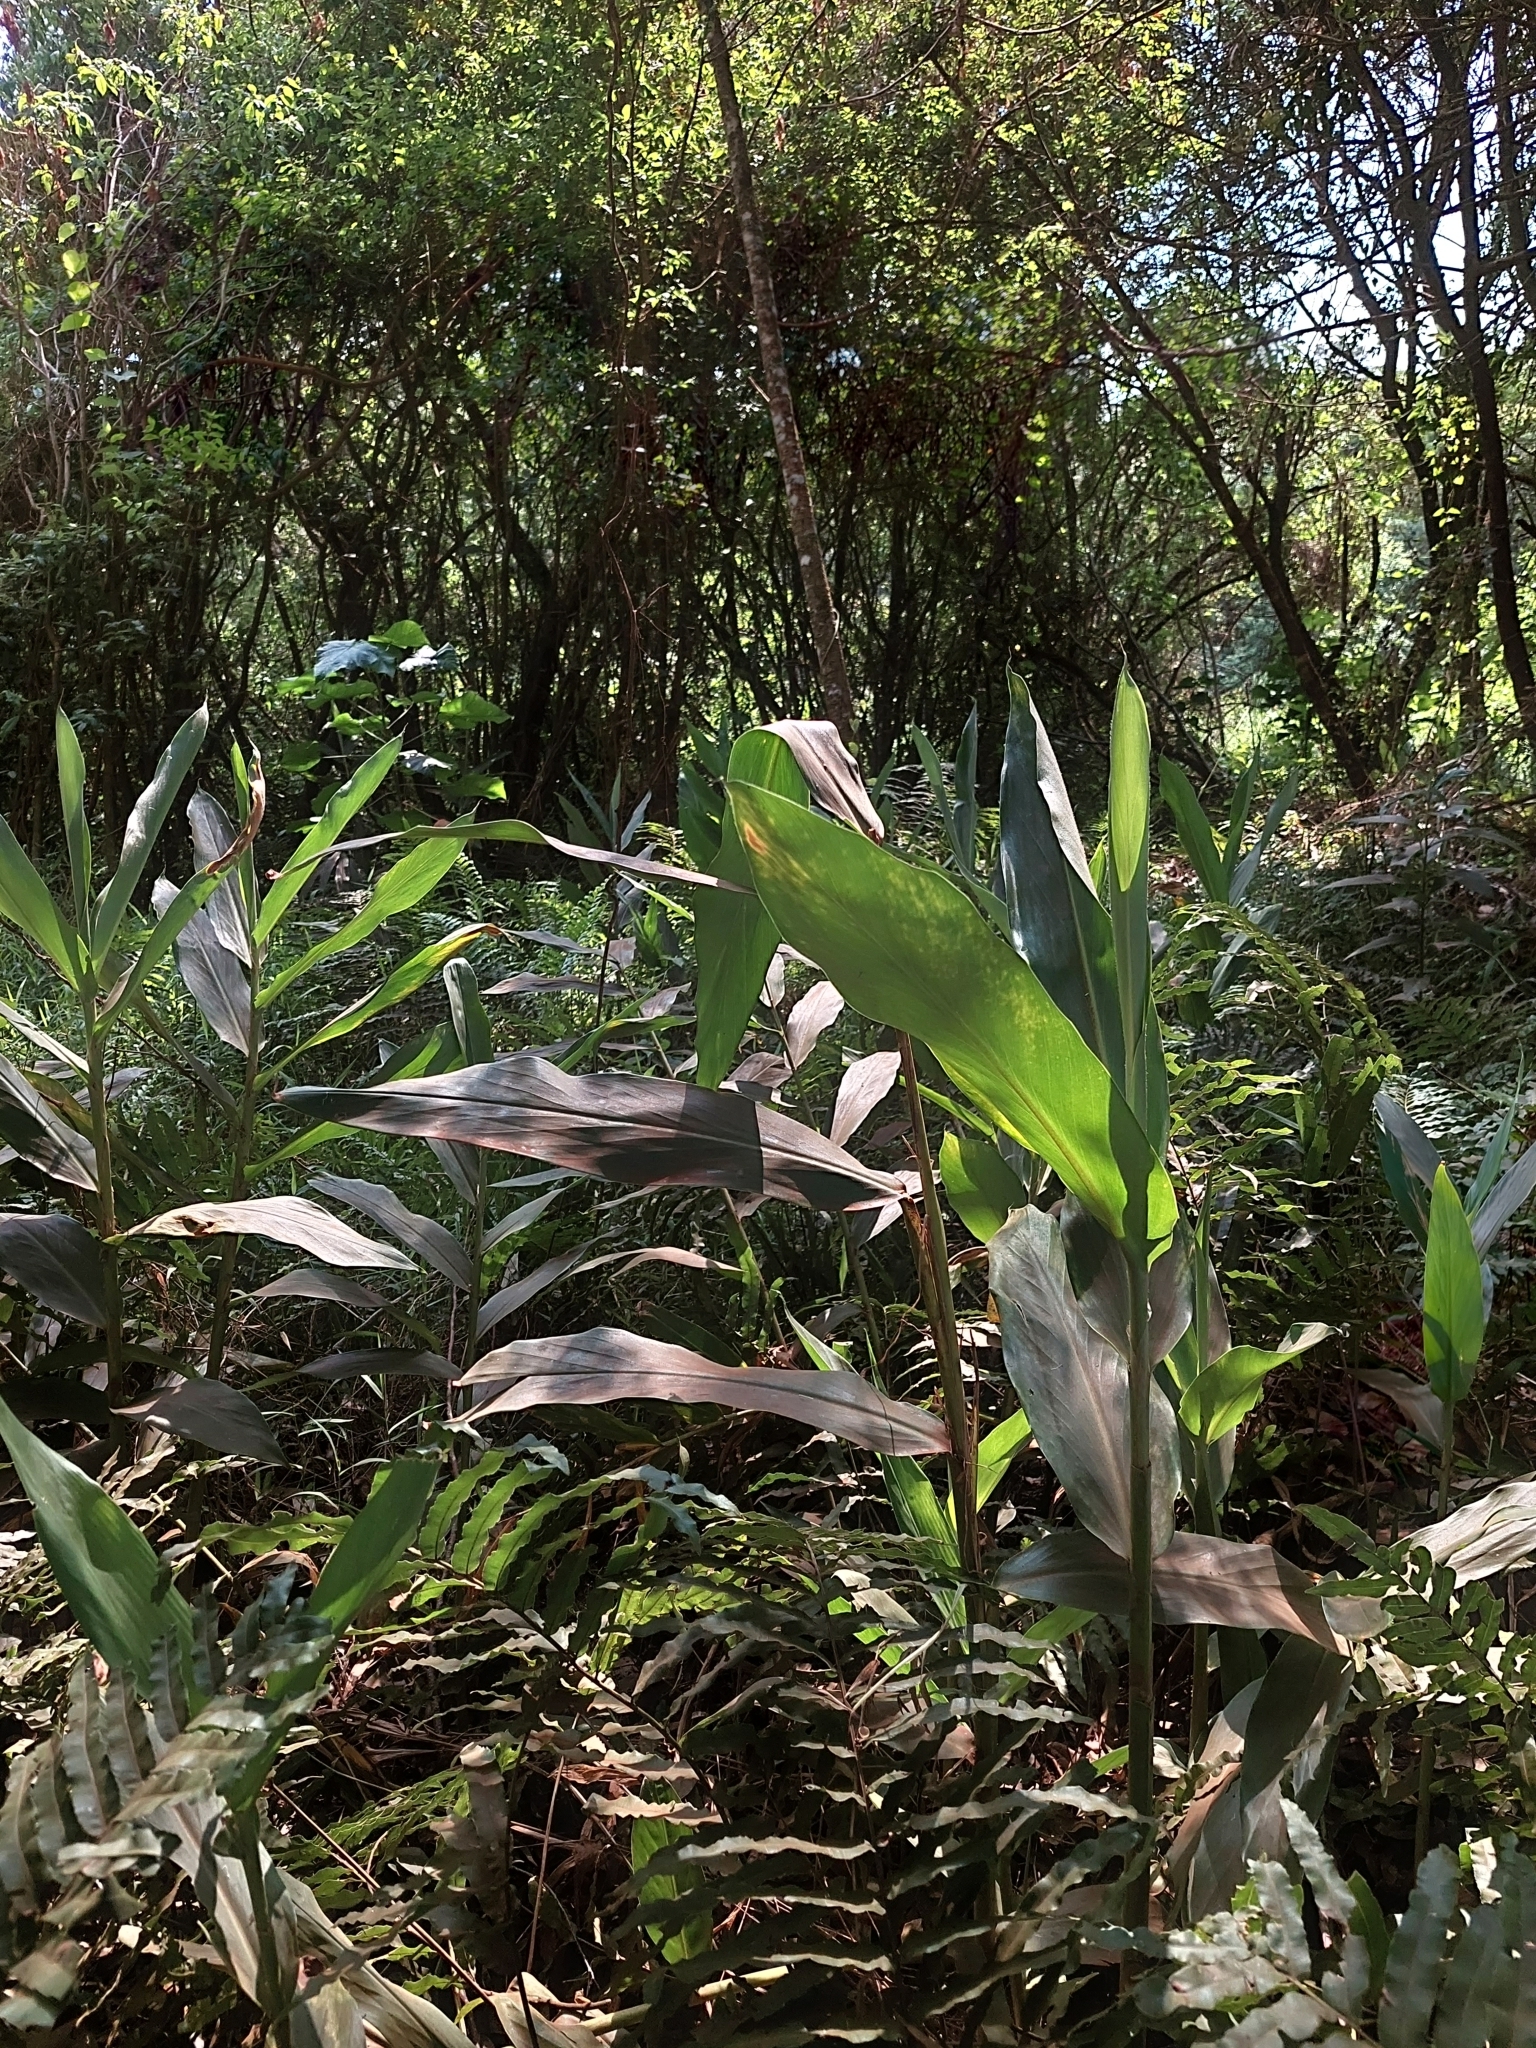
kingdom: Plantae
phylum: Tracheophyta
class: Liliopsida
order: Zingiberales
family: Zingiberaceae
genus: Hedychium
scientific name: Hedychium coronarium
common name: White garland-lily
